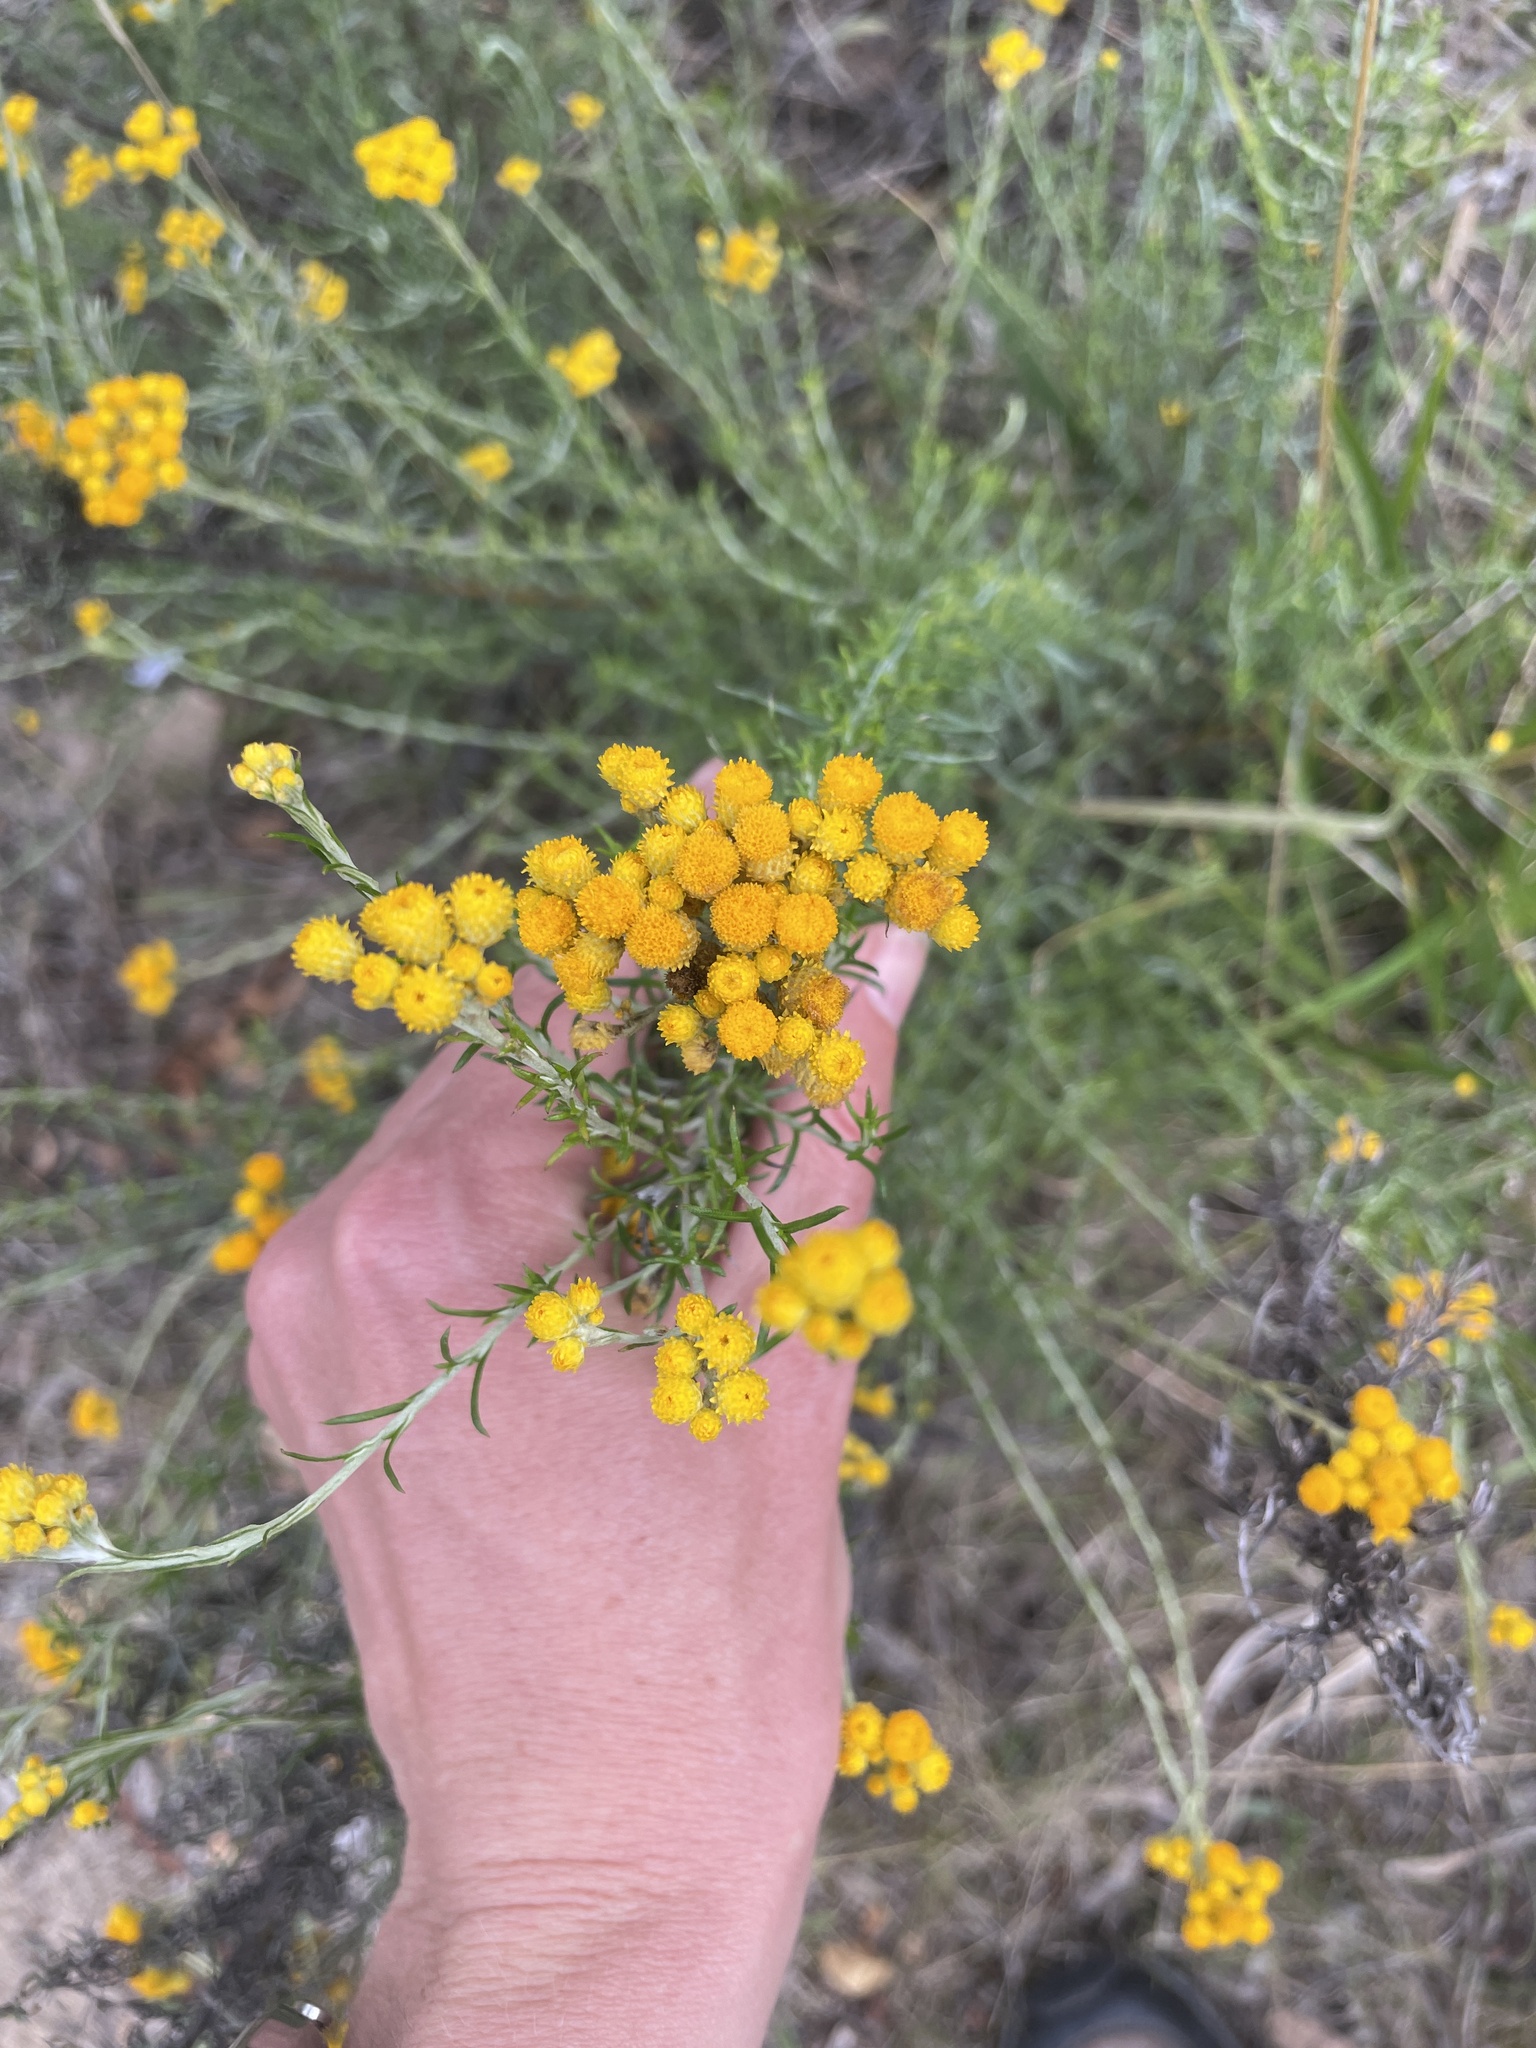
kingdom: Plantae
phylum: Tracheophyta
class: Magnoliopsida
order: Asterales
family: Asteraceae
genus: Chrysocephalum
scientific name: Chrysocephalum semipapposum
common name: Clustered everlasting
